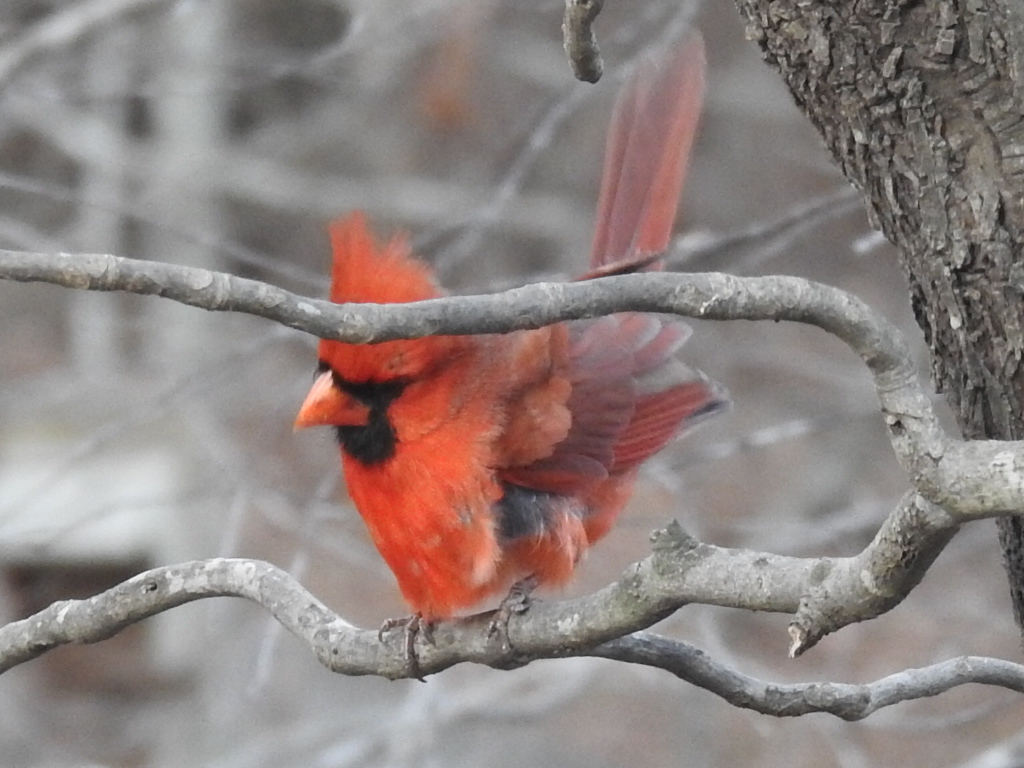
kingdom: Animalia
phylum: Chordata
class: Aves
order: Passeriformes
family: Cardinalidae
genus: Cardinalis
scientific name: Cardinalis cardinalis
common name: Northern cardinal
